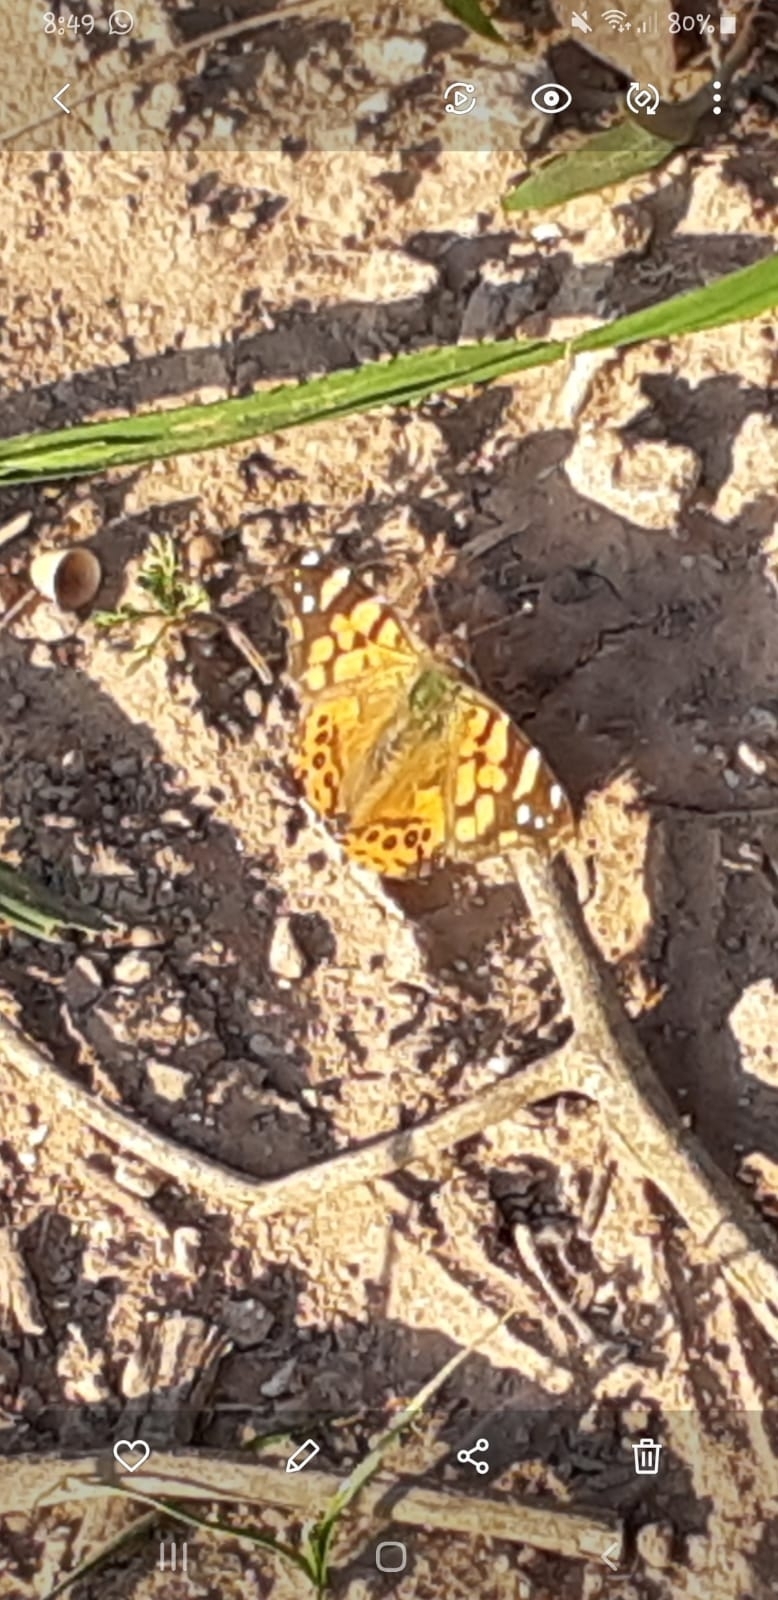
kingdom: Animalia
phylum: Arthropoda
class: Insecta
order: Lepidoptera
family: Nymphalidae
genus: Vanessa
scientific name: Vanessa carye
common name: Subtropical lady
